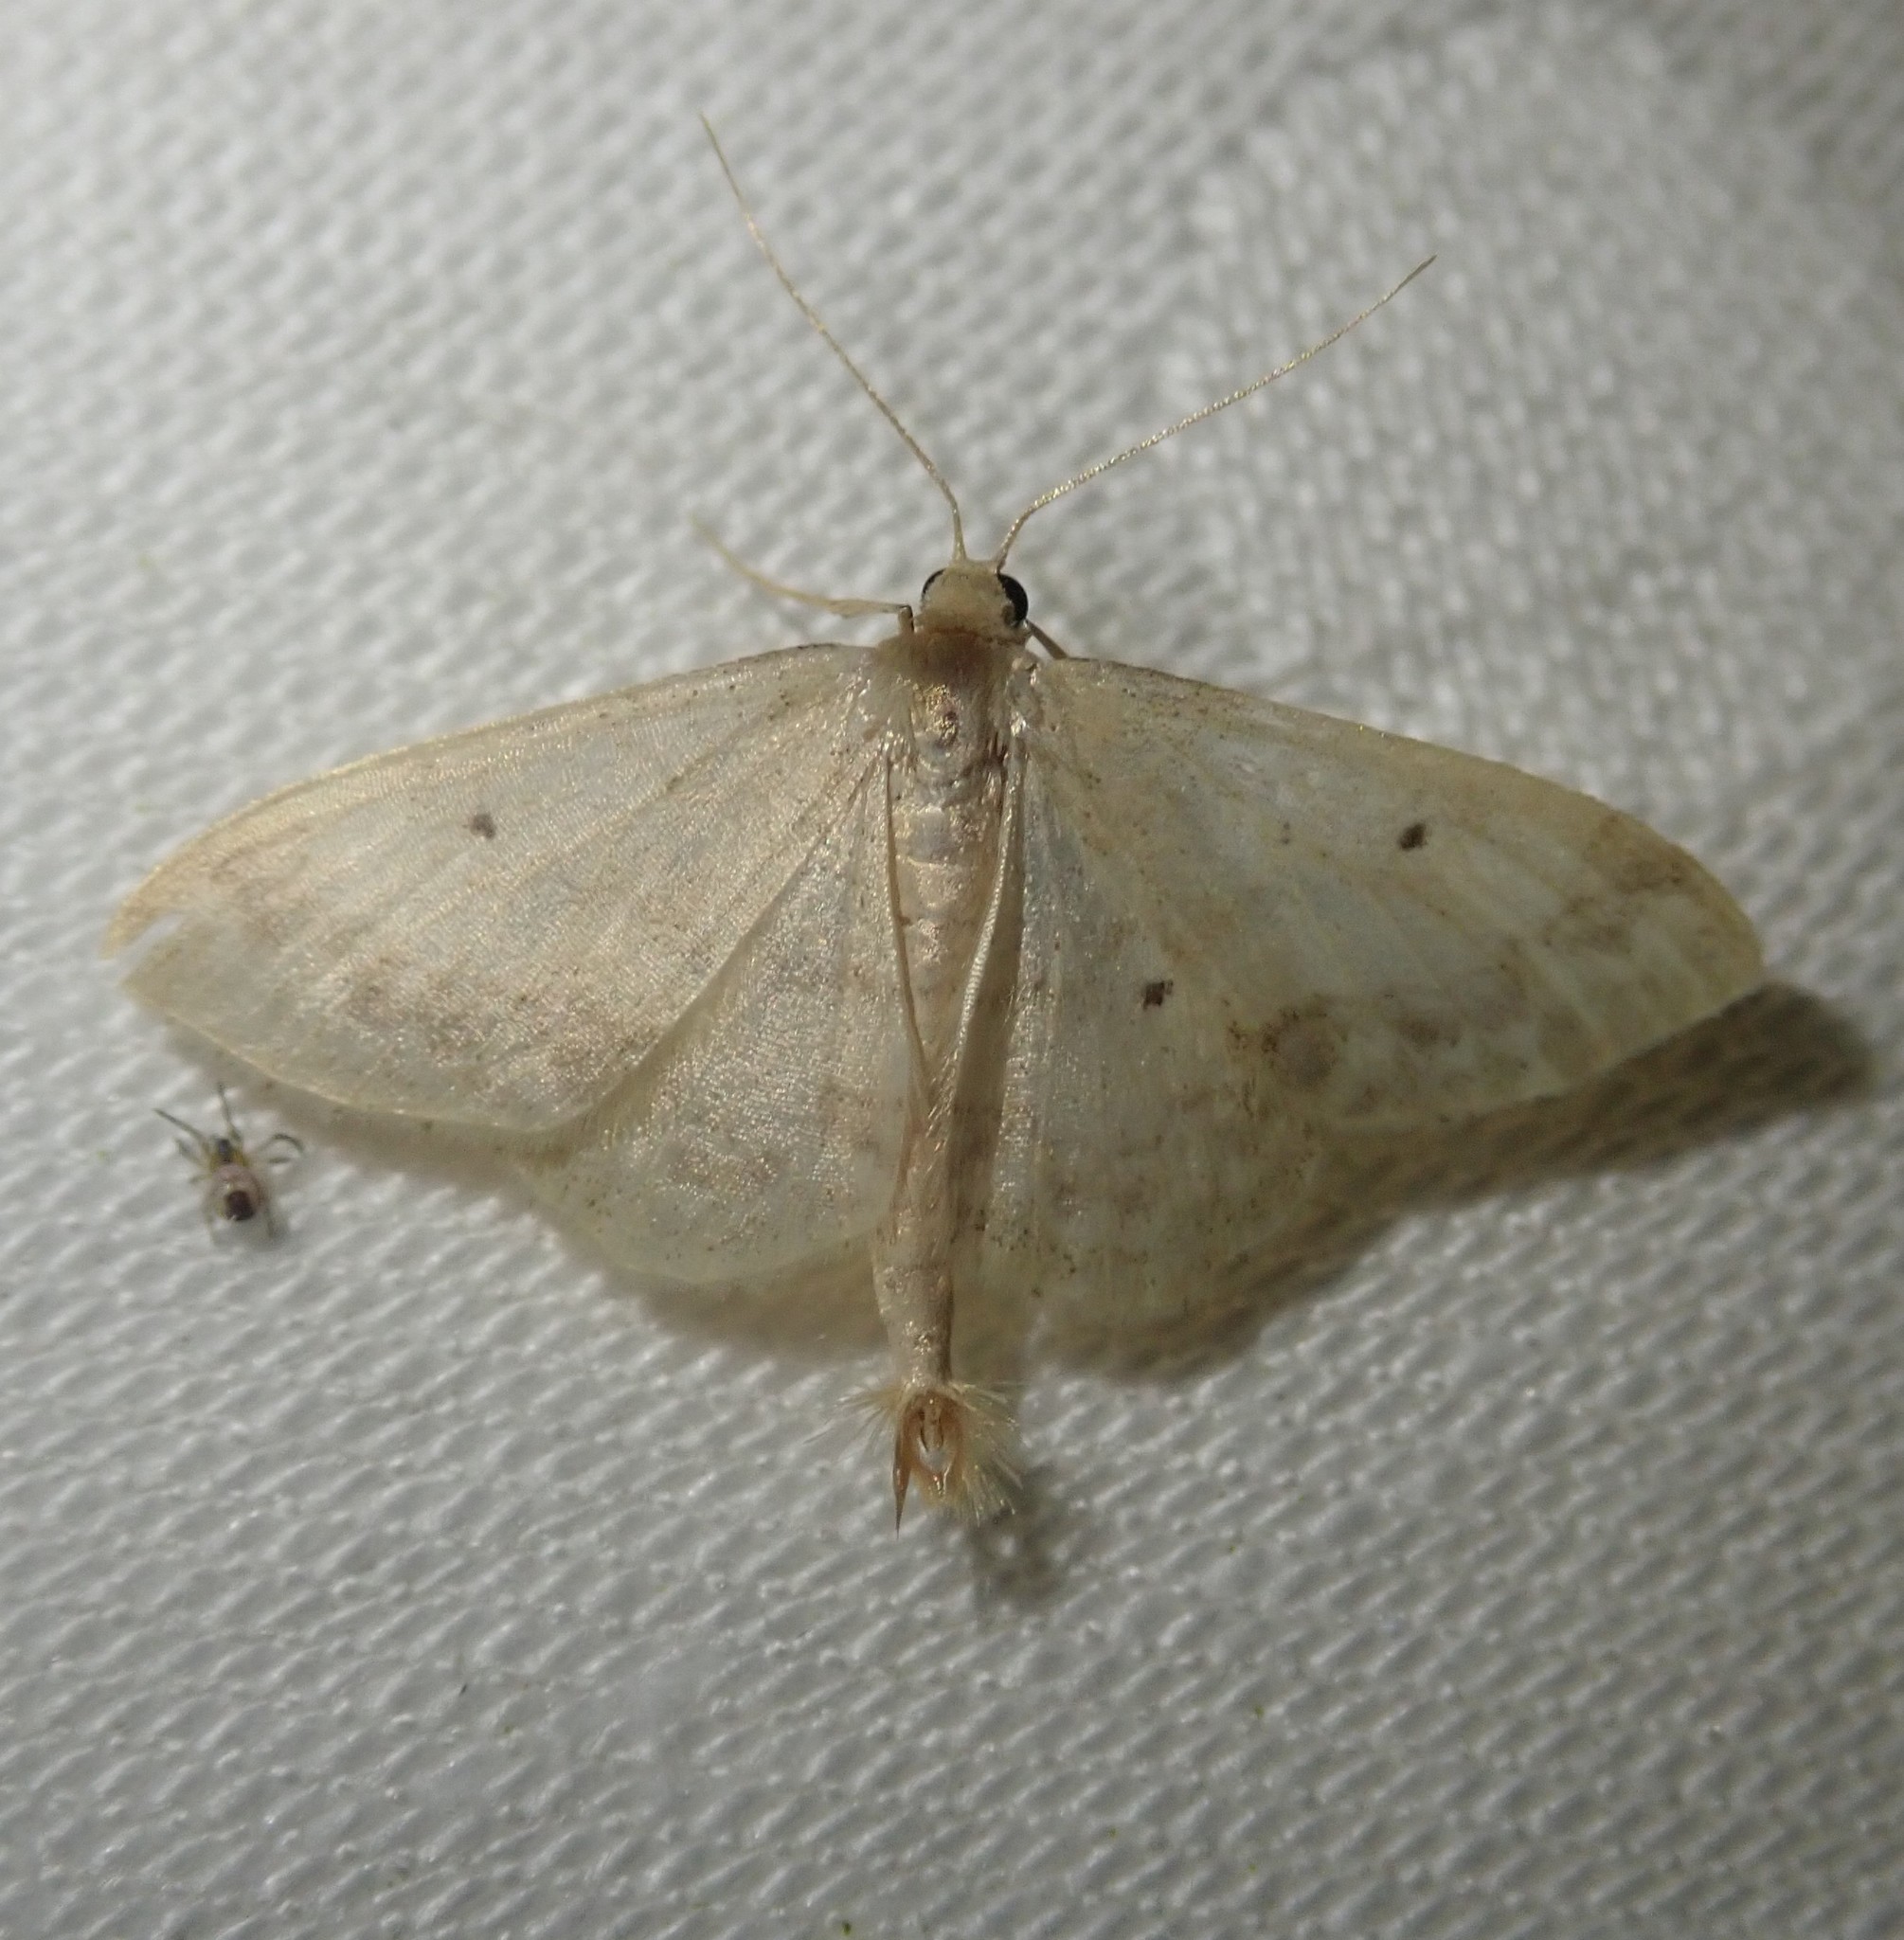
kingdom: Animalia
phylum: Arthropoda
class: Insecta
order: Lepidoptera
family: Geometridae
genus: Idaea
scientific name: Idaea biselata
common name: Small fan-footed wave
